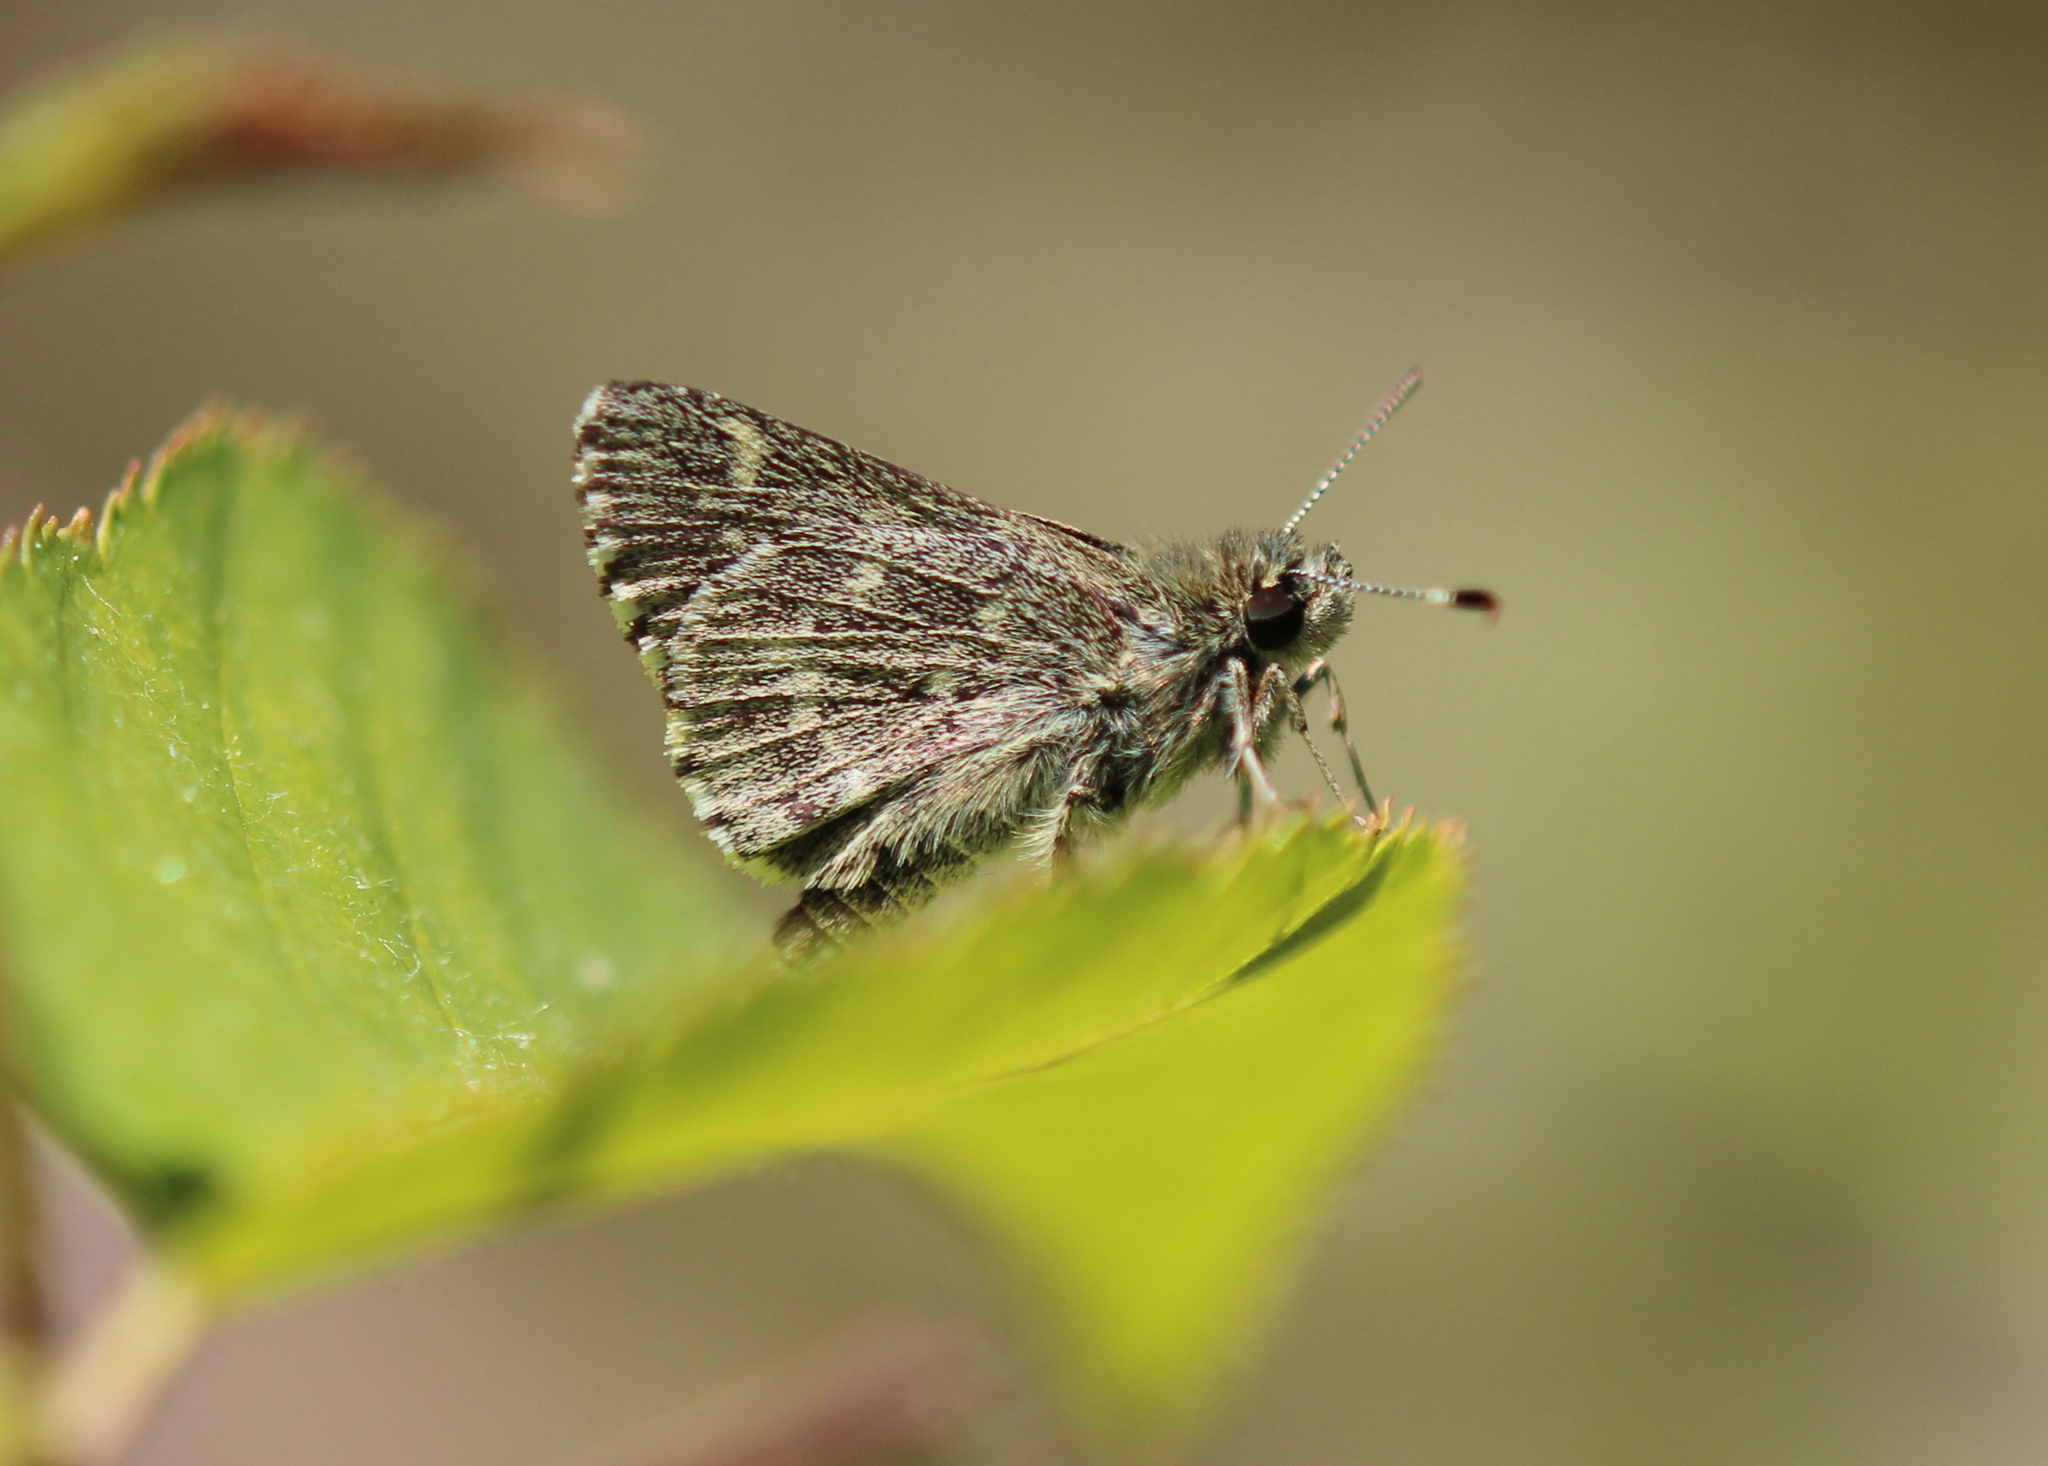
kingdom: Animalia
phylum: Arthropoda
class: Insecta
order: Lepidoptera
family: Hesperiidae
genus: Mastor
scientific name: Mastor hegon
